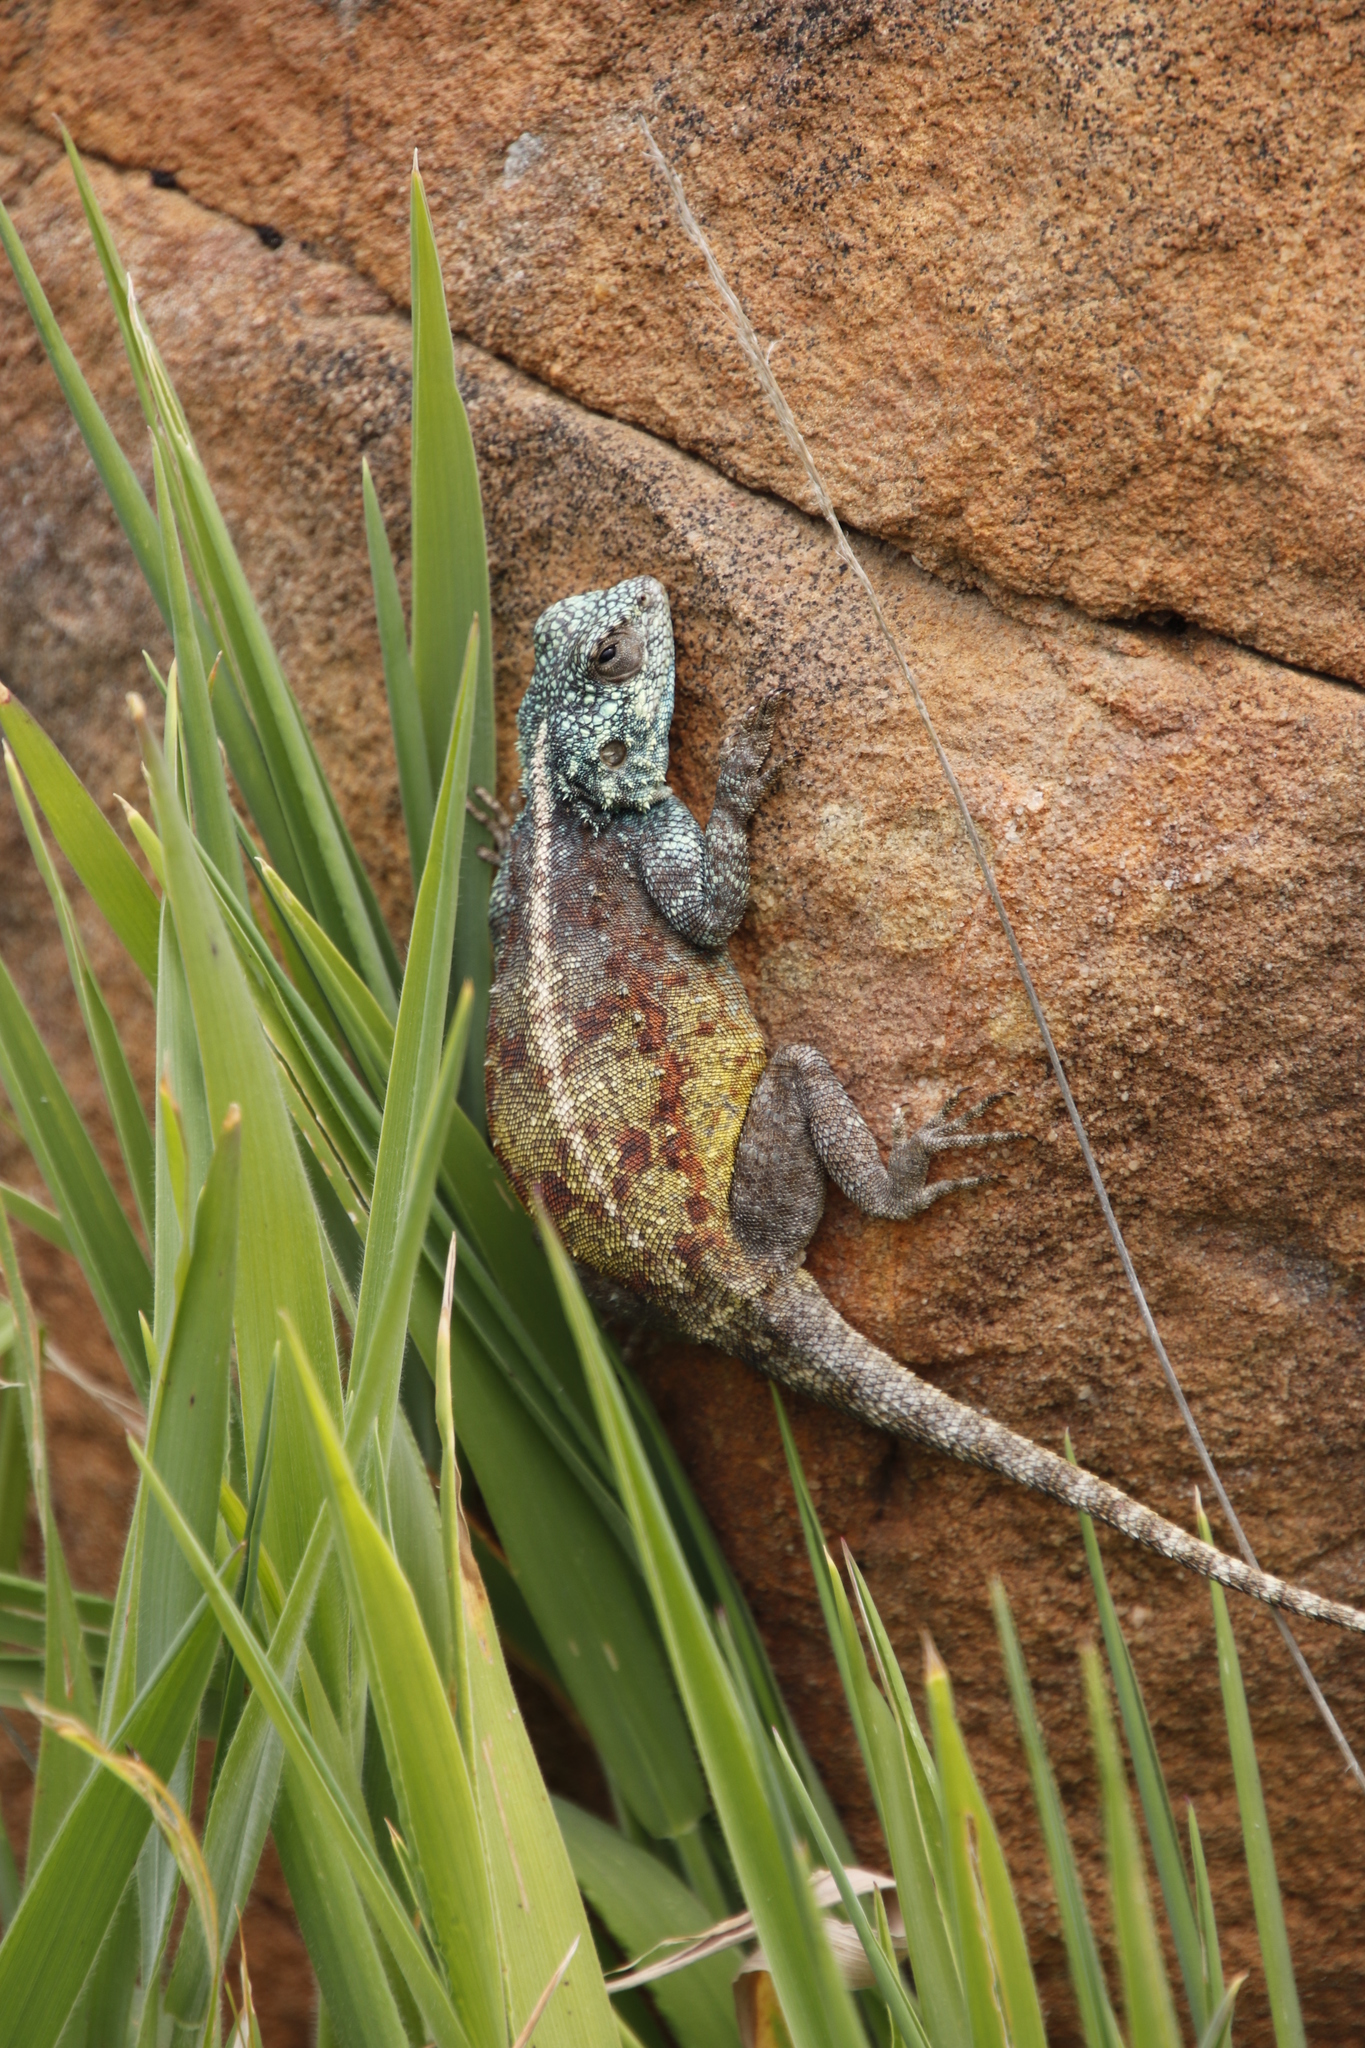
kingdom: Animalia
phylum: Chordata
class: Squamata
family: Agamidae
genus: Agama
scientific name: Agama atra
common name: Southern african rock agama
